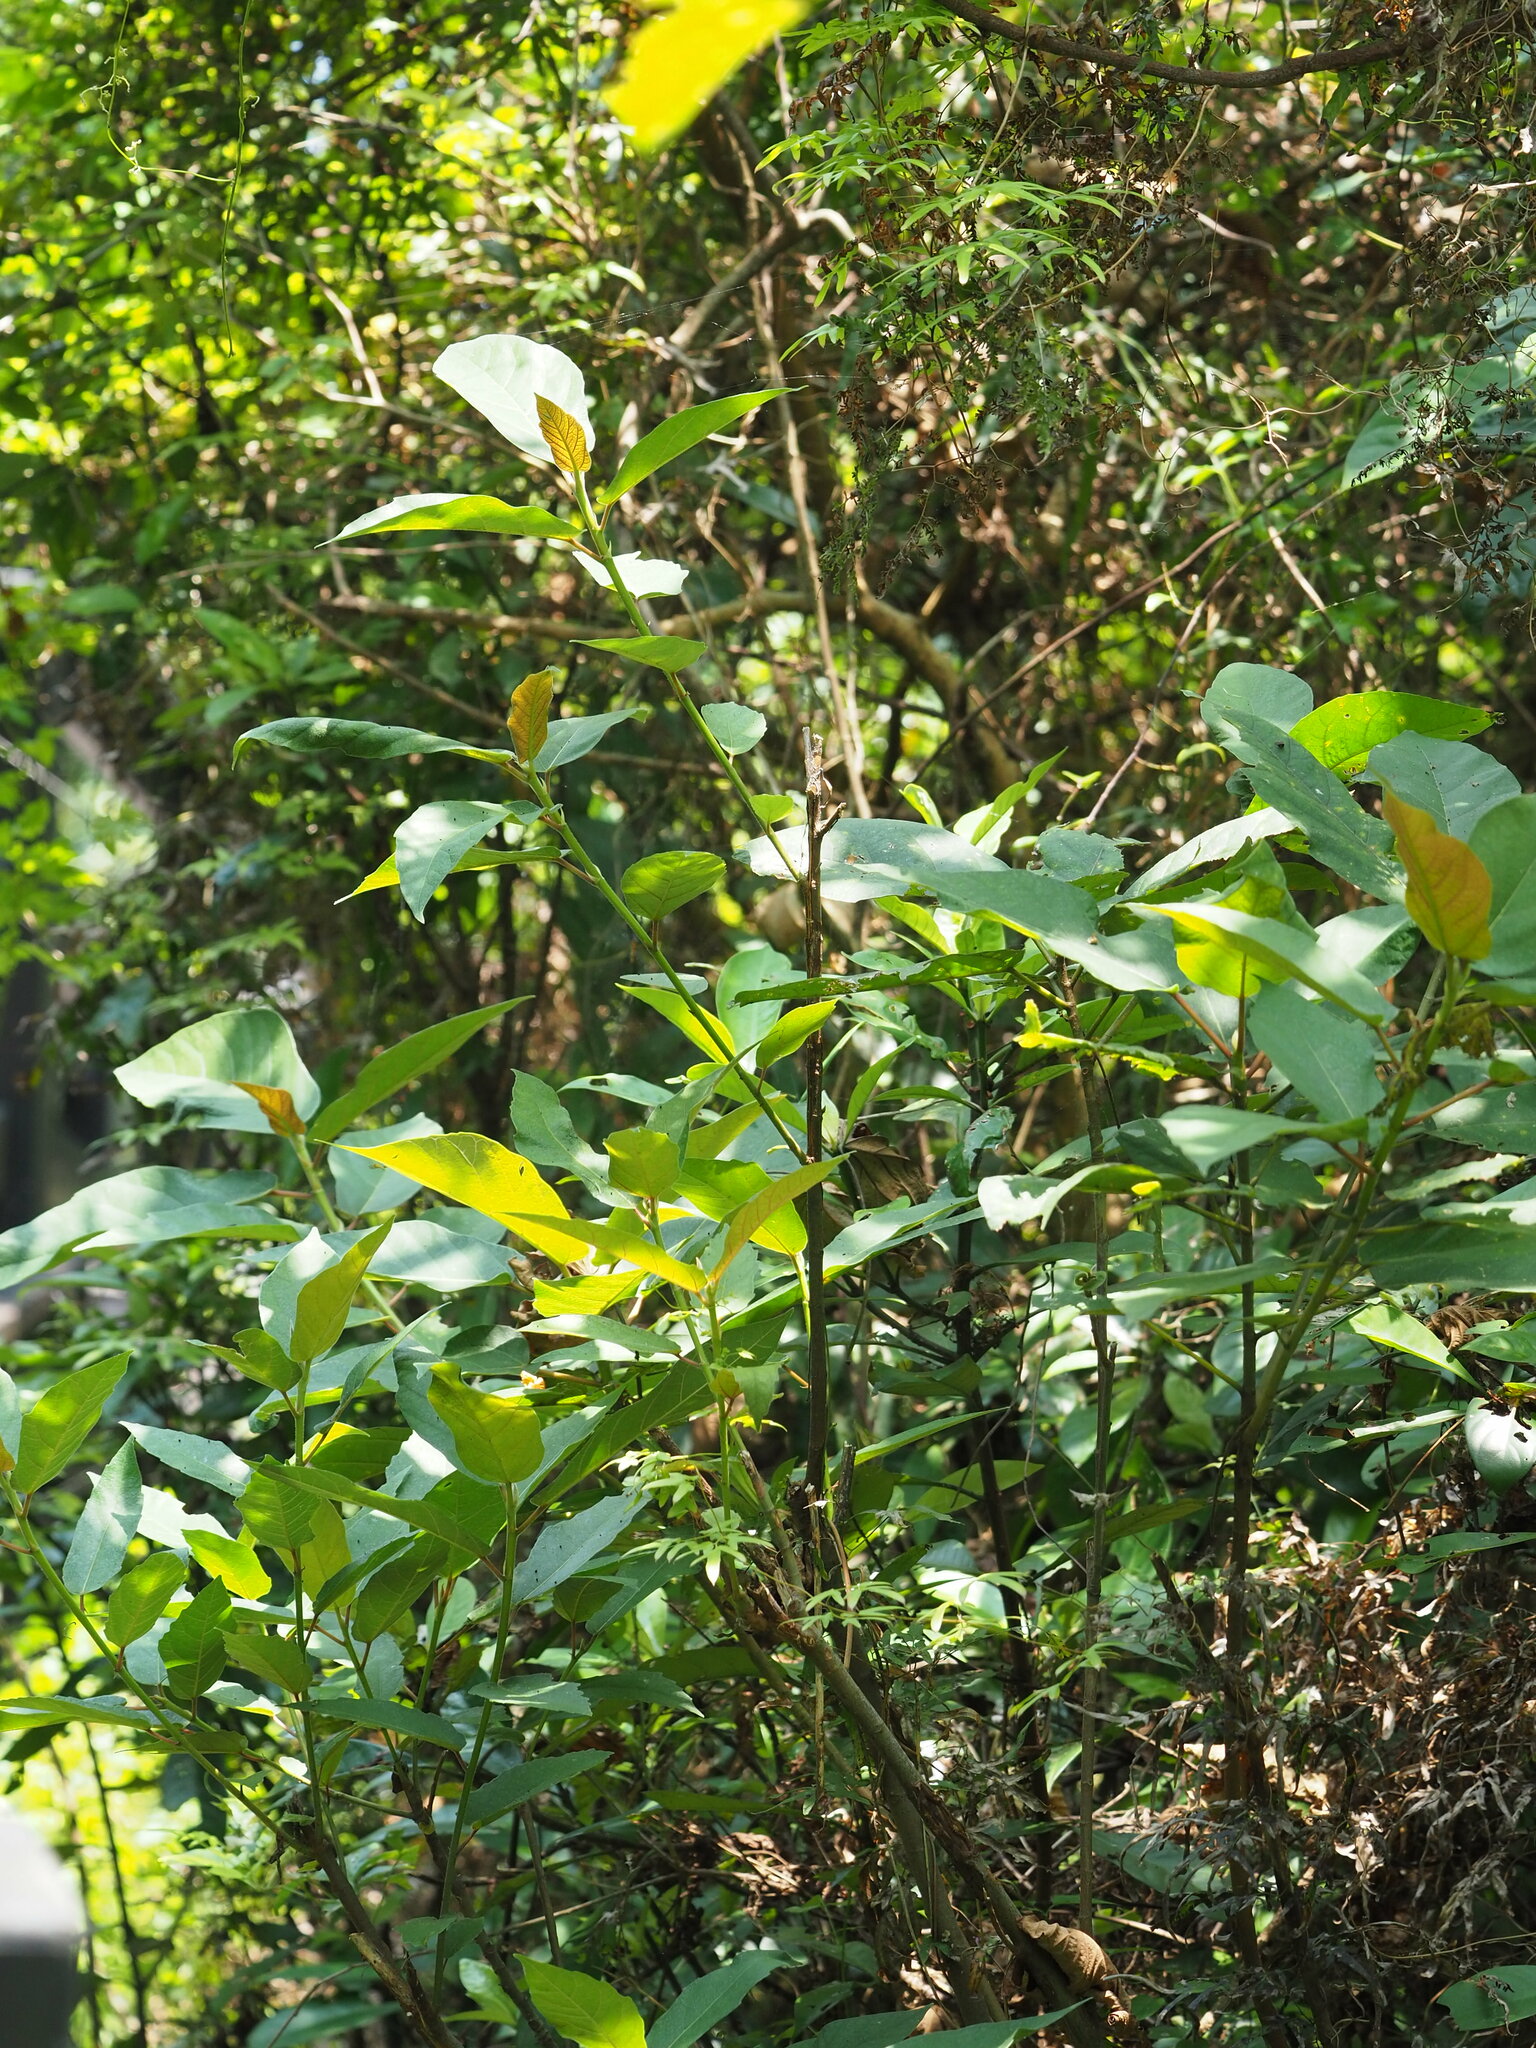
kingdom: Plantae
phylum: Tracheophyta
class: Magnoliopsida
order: Rosales
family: Moraceae
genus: Ficus
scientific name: Ficus erecta
